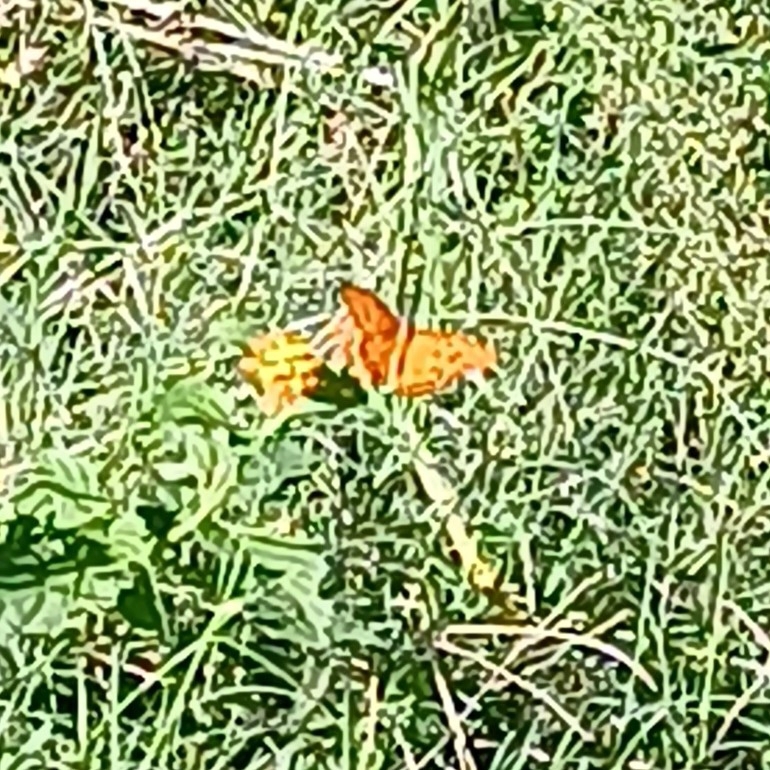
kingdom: Animalia
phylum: Arthropoda
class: Insecta
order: Lepidoptera
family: Nymphalidae
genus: Dione
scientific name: Dione vanillae
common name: Gulf fritillary
